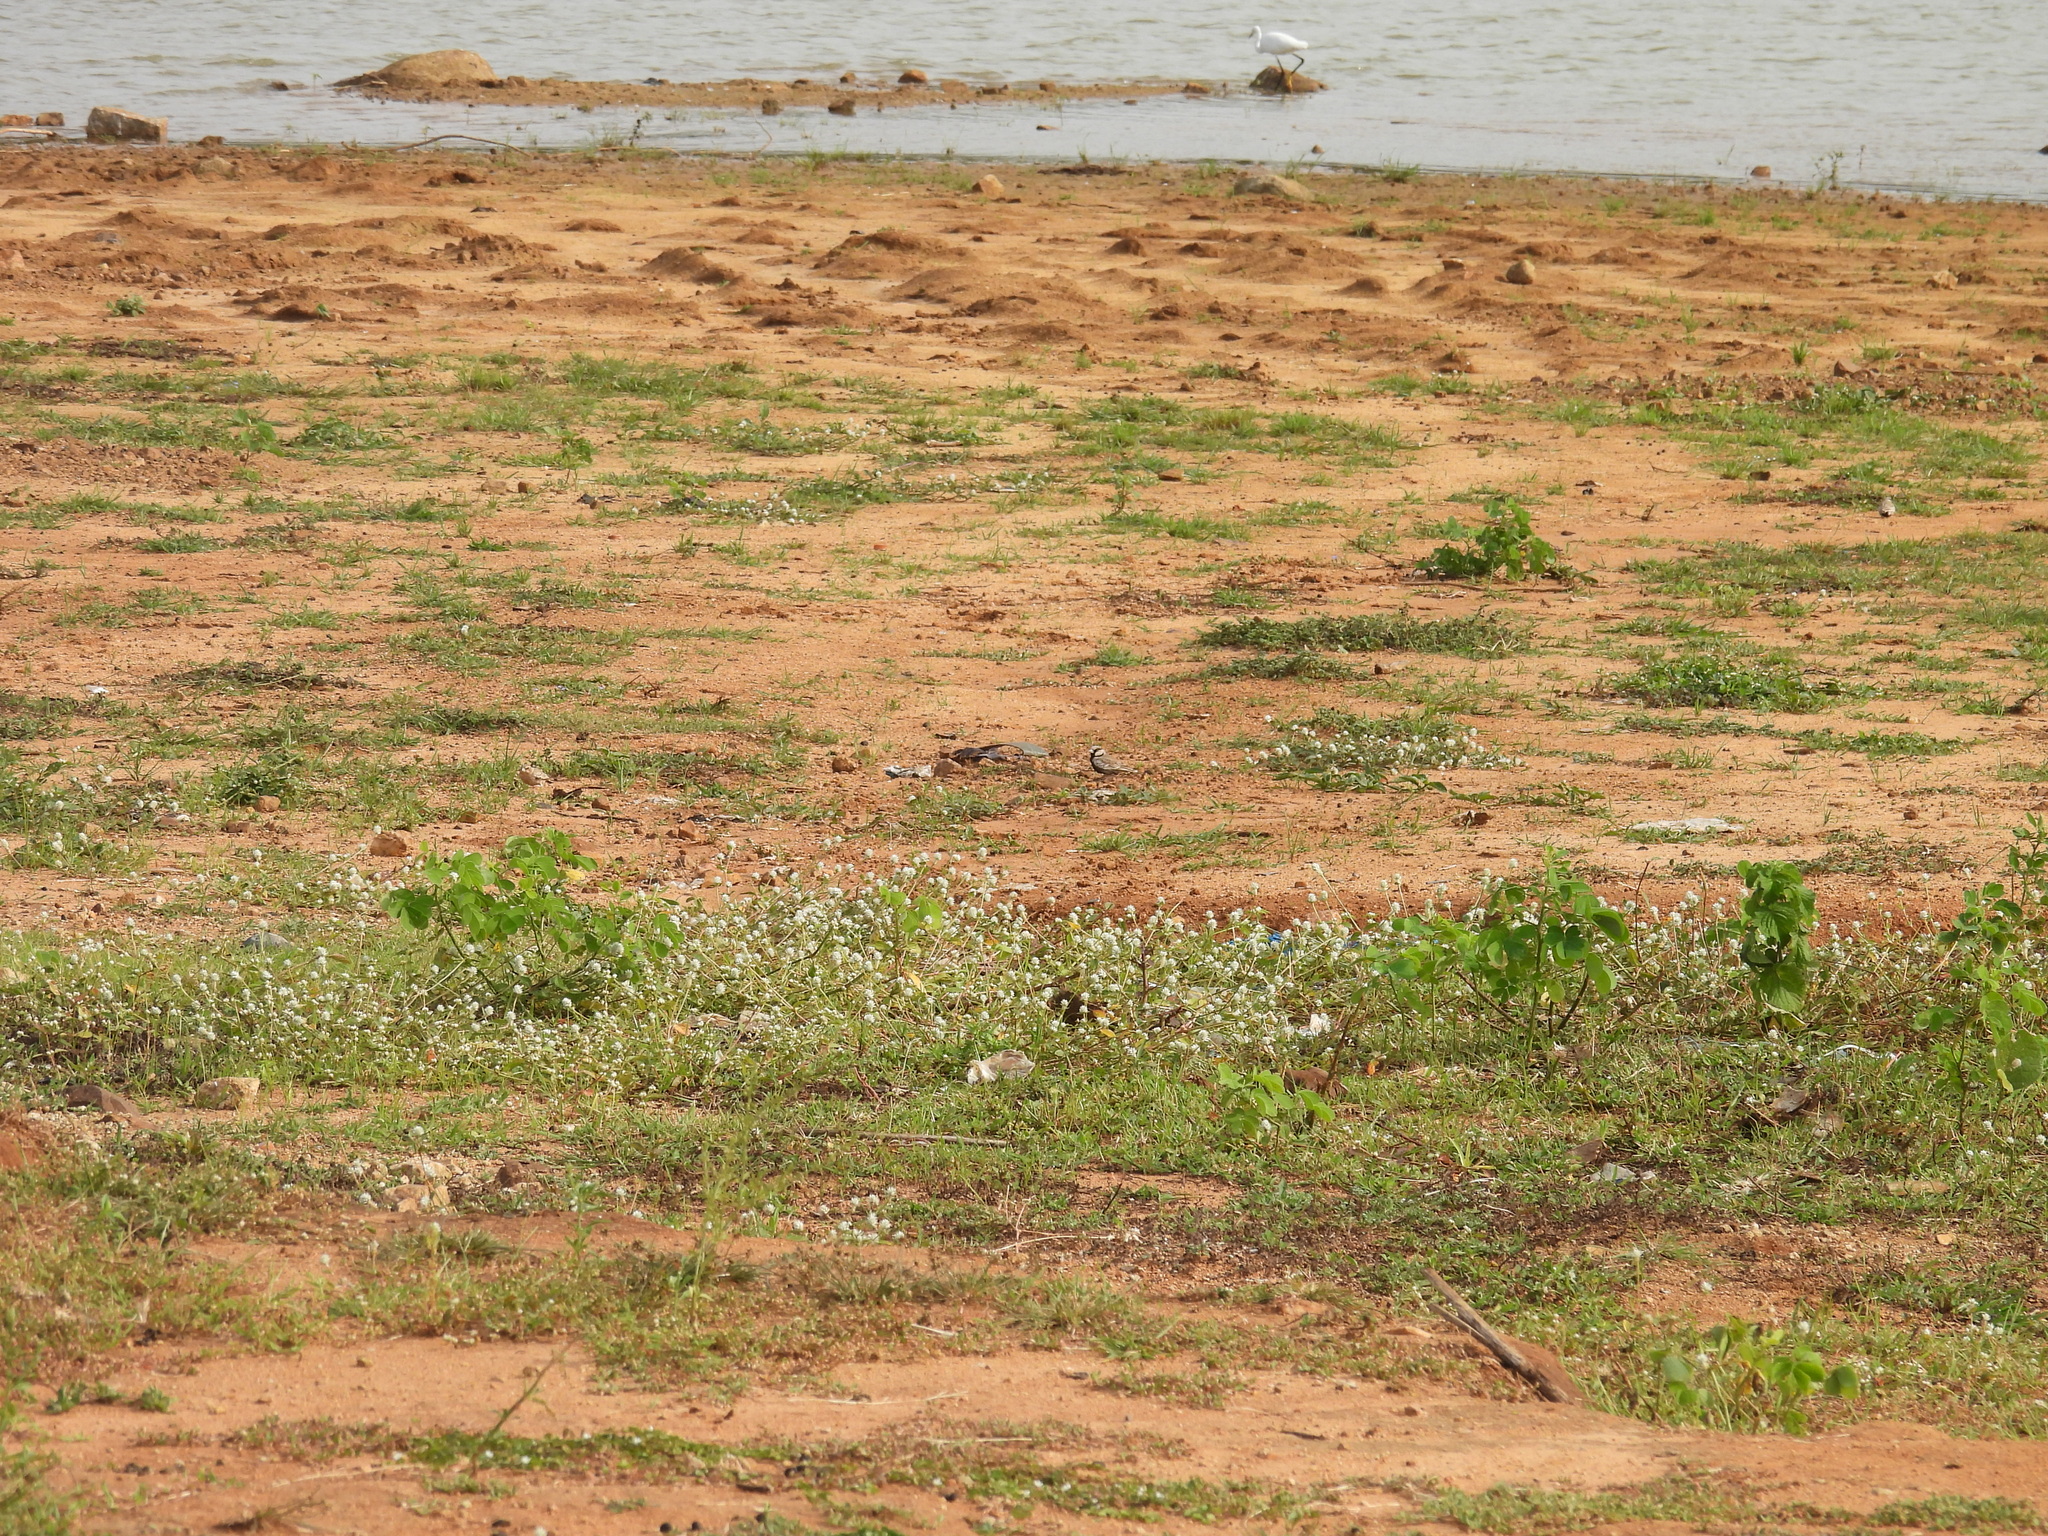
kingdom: Animalia
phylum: Chordata
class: Aves
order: Passeriformes
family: Alaudidae
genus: Eremopterix
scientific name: Eremopterix griseus
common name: Ashy-crowned sparrow-lark
